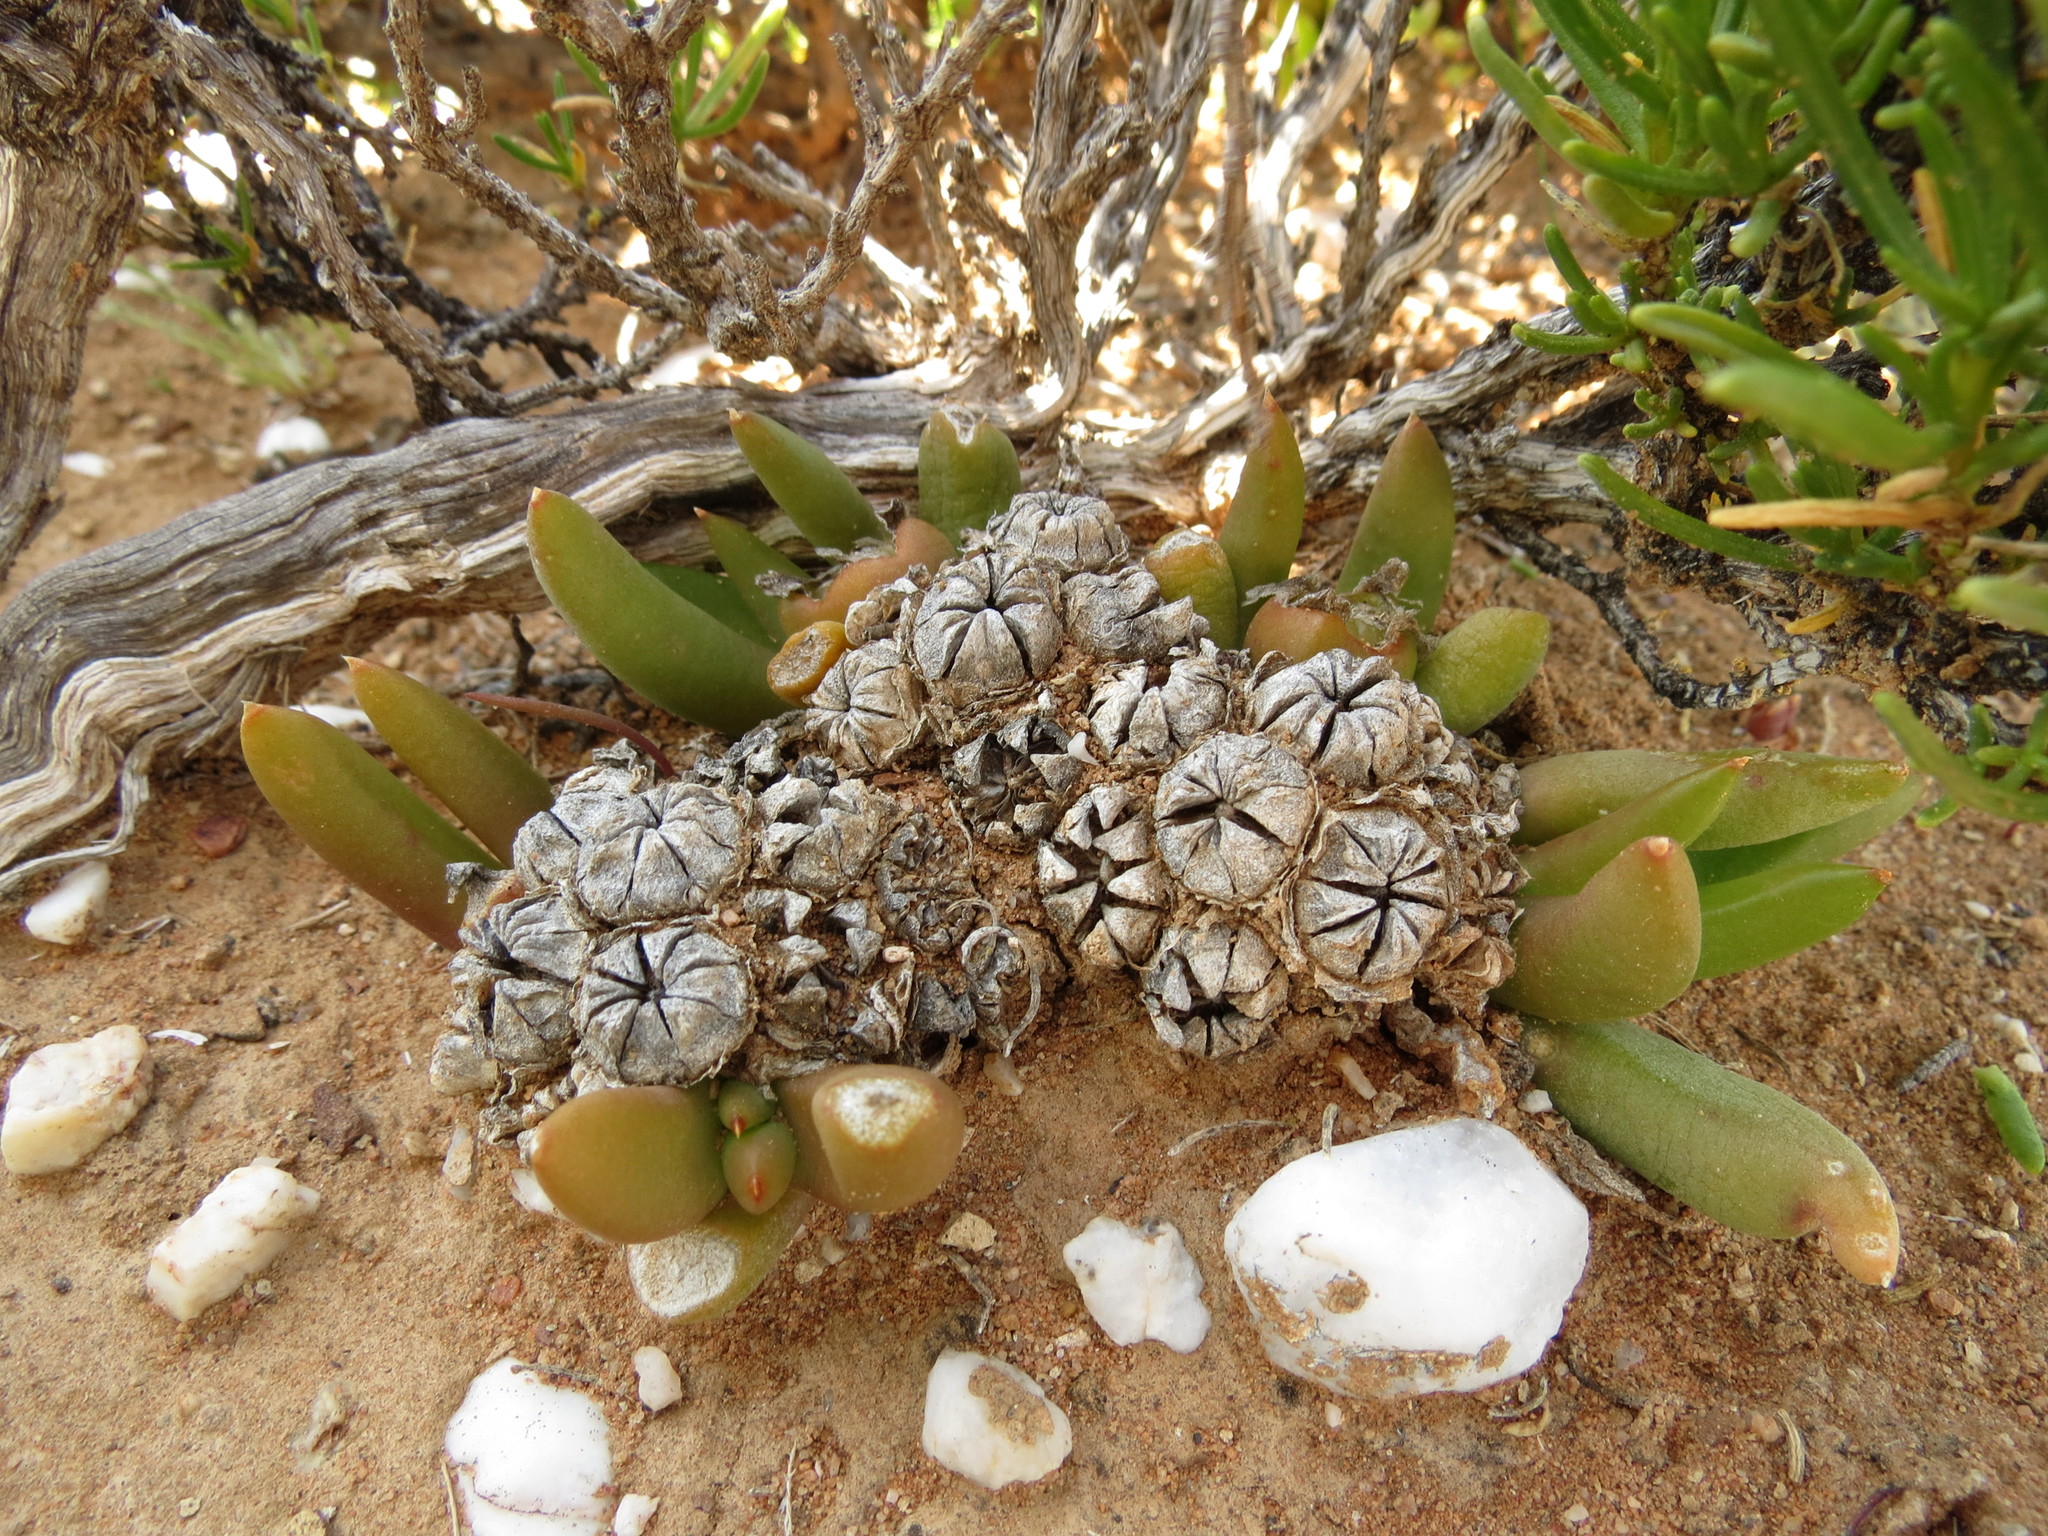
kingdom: Plantae
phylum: Tracheophyta
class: Magnoliopsida
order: Caryophyllales
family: Aizoaceae
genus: Glottiphyllum
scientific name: Glottiphyllum fergusoniae
